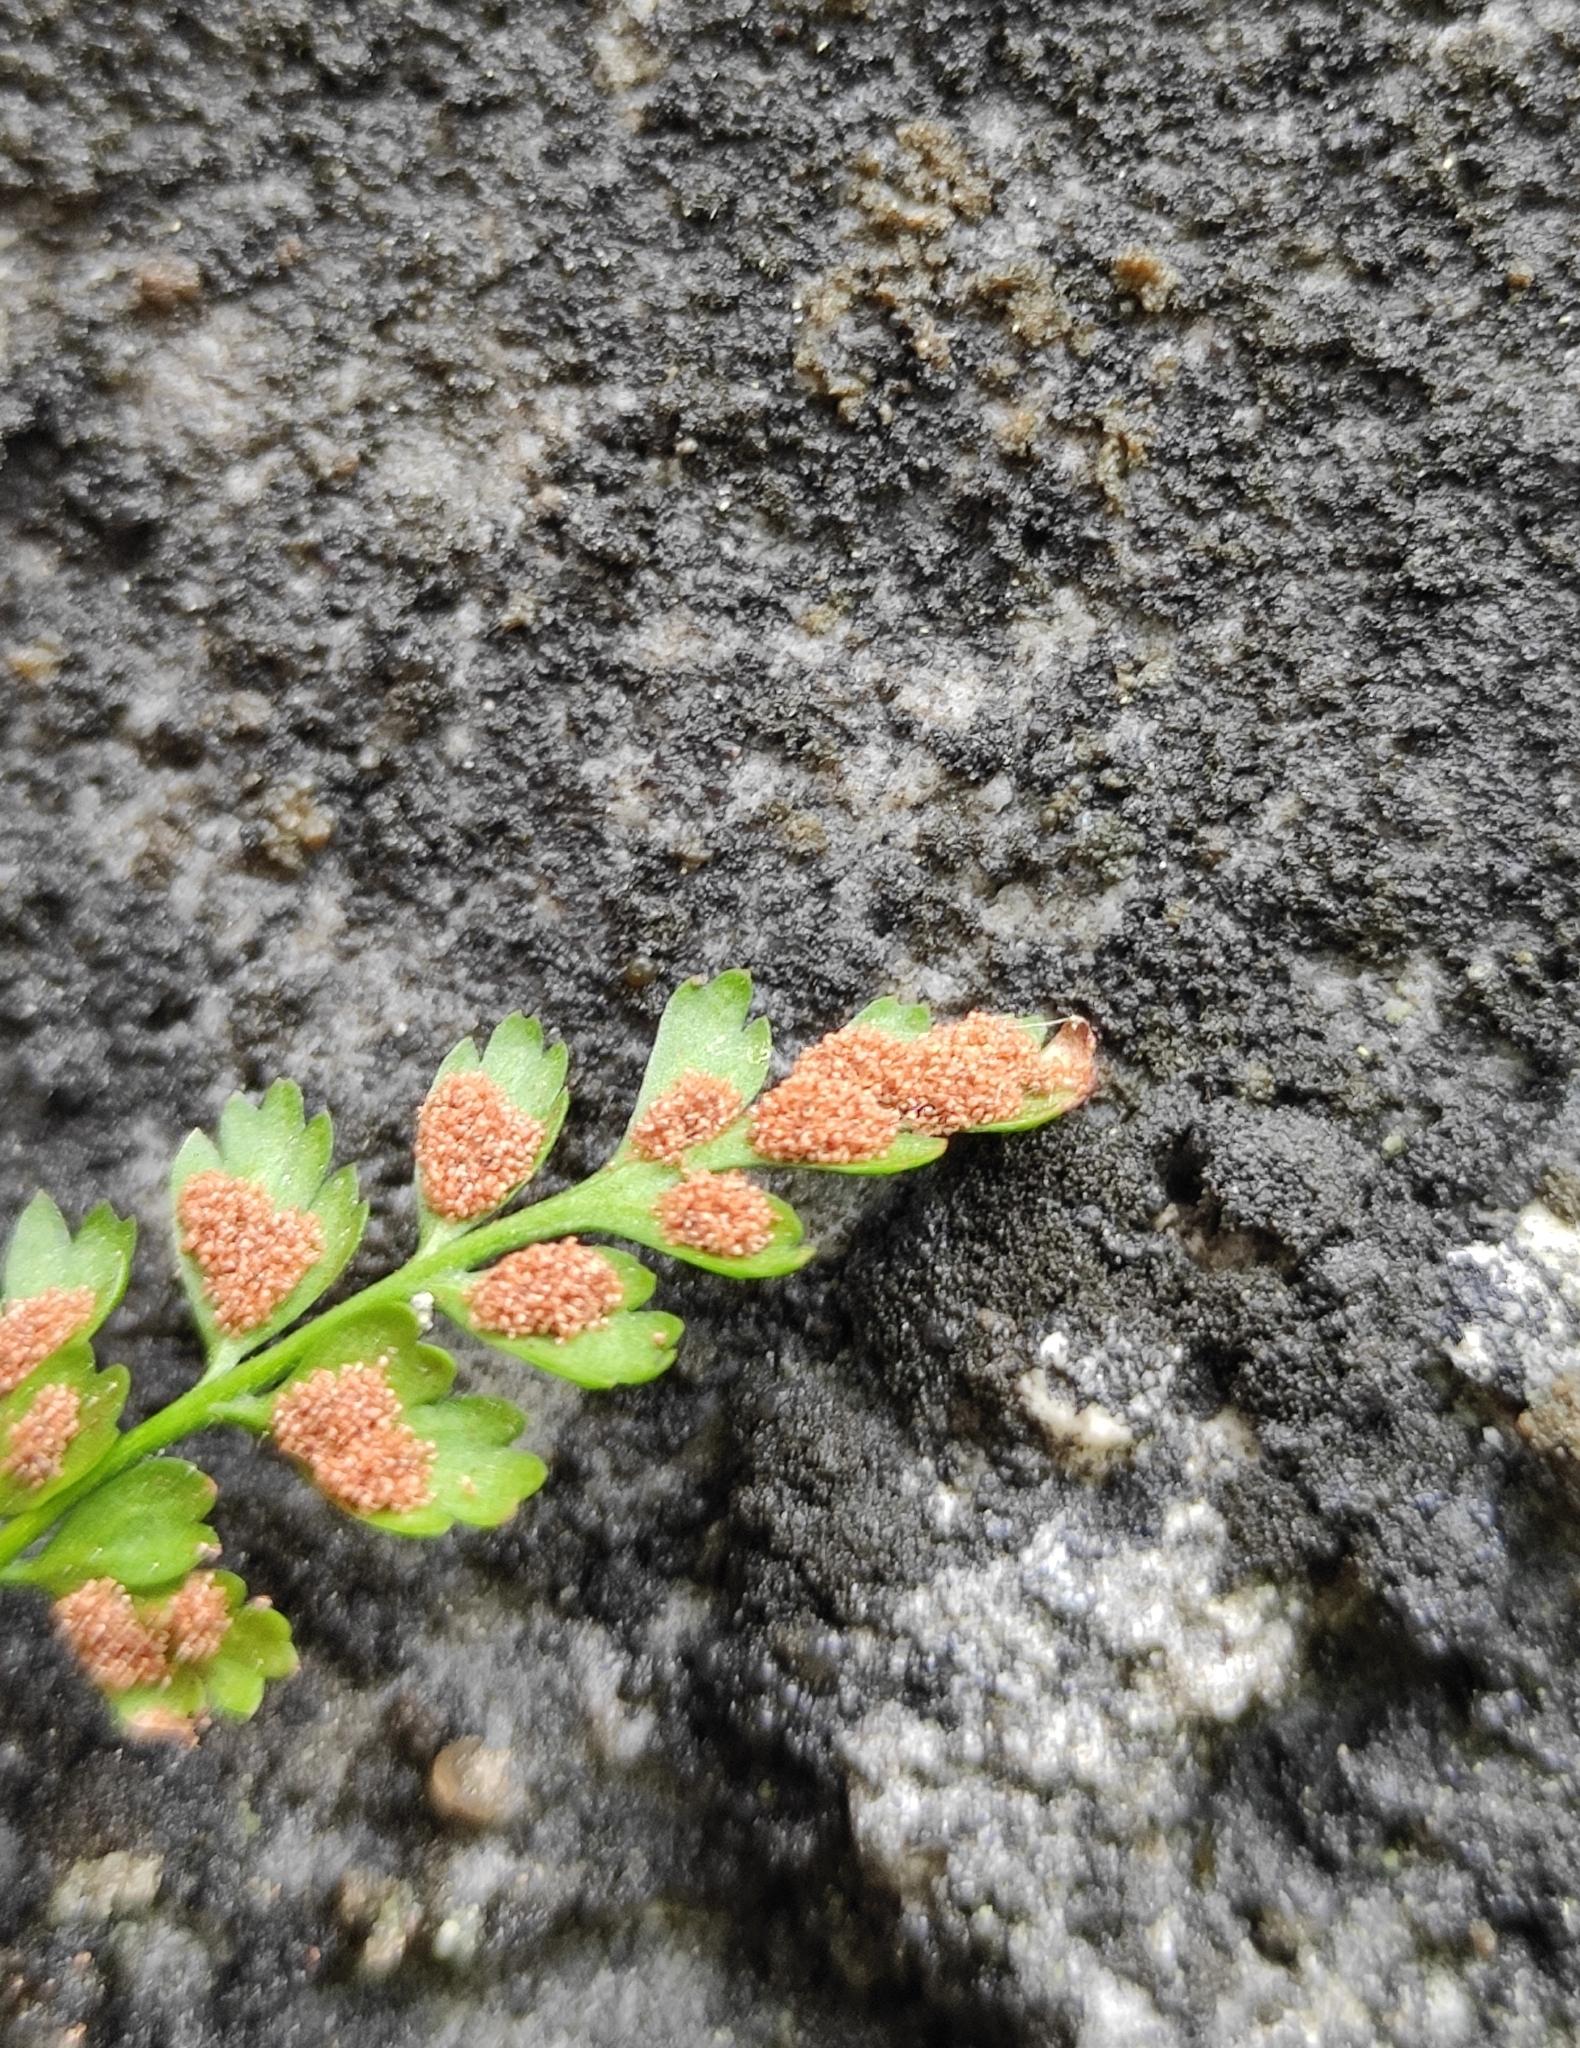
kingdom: Plantae
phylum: Tracheophyta
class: Polypodiopsida
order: Polypodiales
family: Aspleniaceae
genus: Asplenium
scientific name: Asplenium ruta-muraria
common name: Wall-rue
